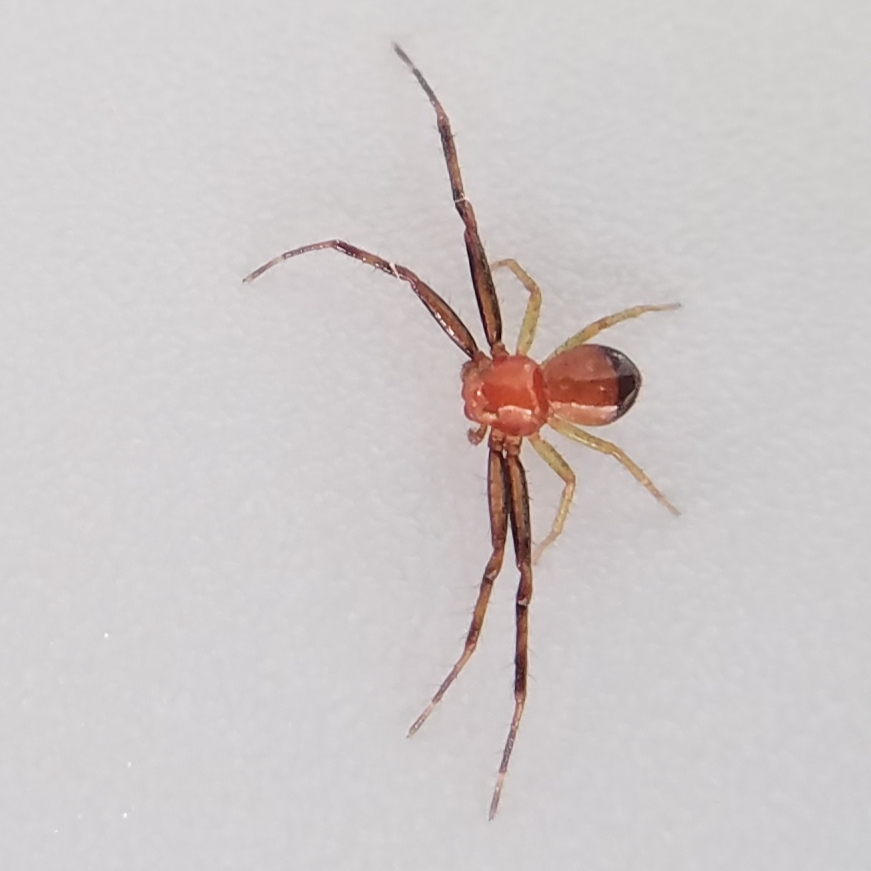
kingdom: Animalia
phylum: Arthropoda
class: Arachnida
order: Araneae
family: Thomisidae
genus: Synema
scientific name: Synema parvulum
